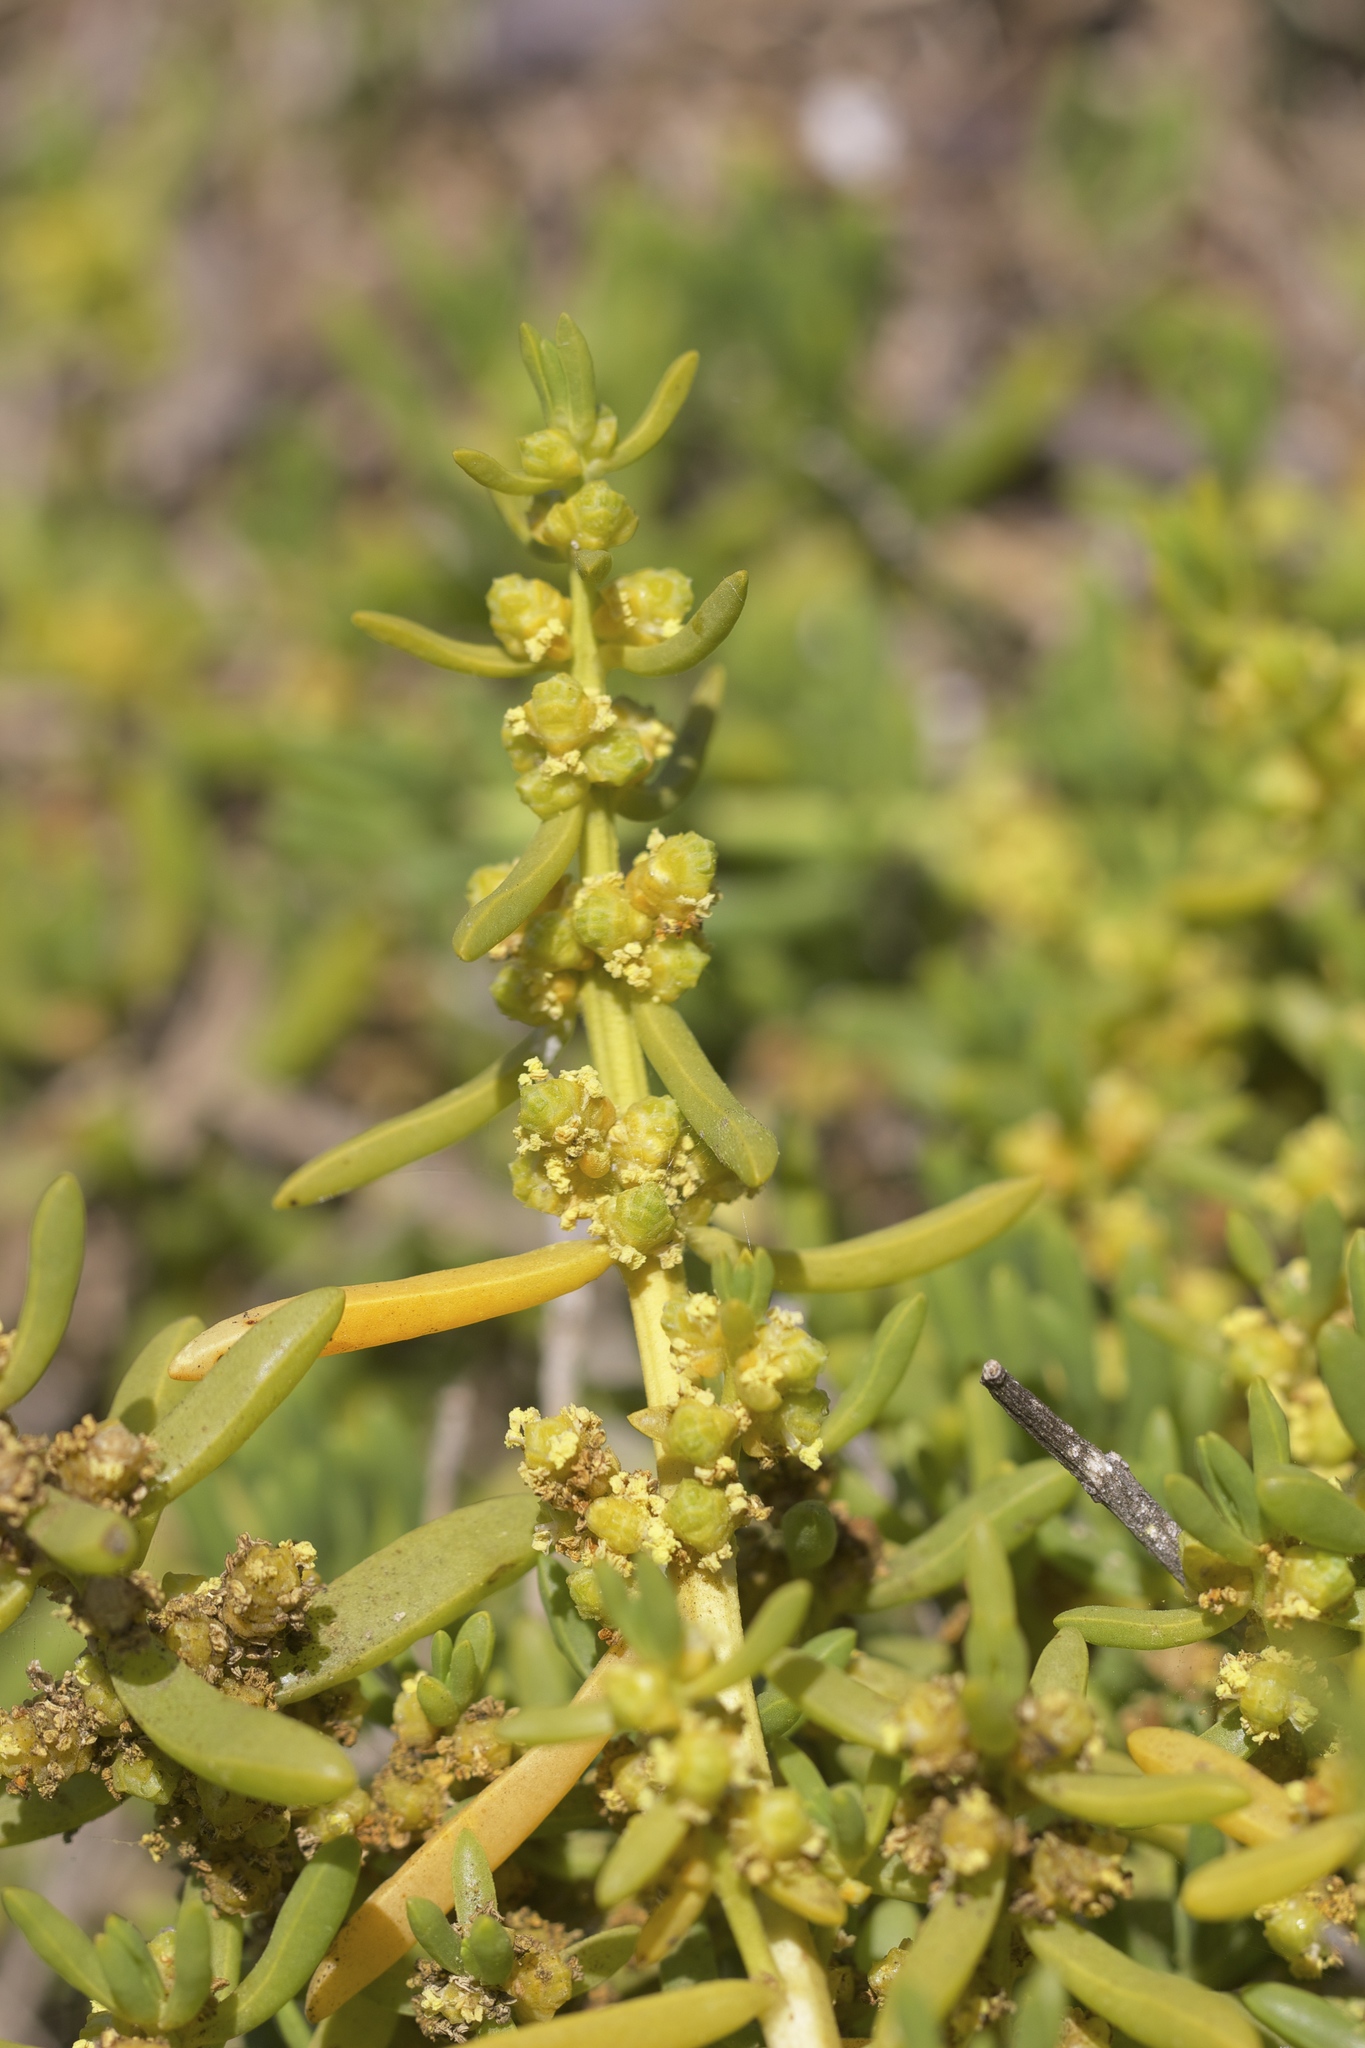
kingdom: Plantae
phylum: Tracheophyta
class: Magnoliopsida
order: Brassicales
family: Bataceae
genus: Batis
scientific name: Batis maritima
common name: Turtleweed
